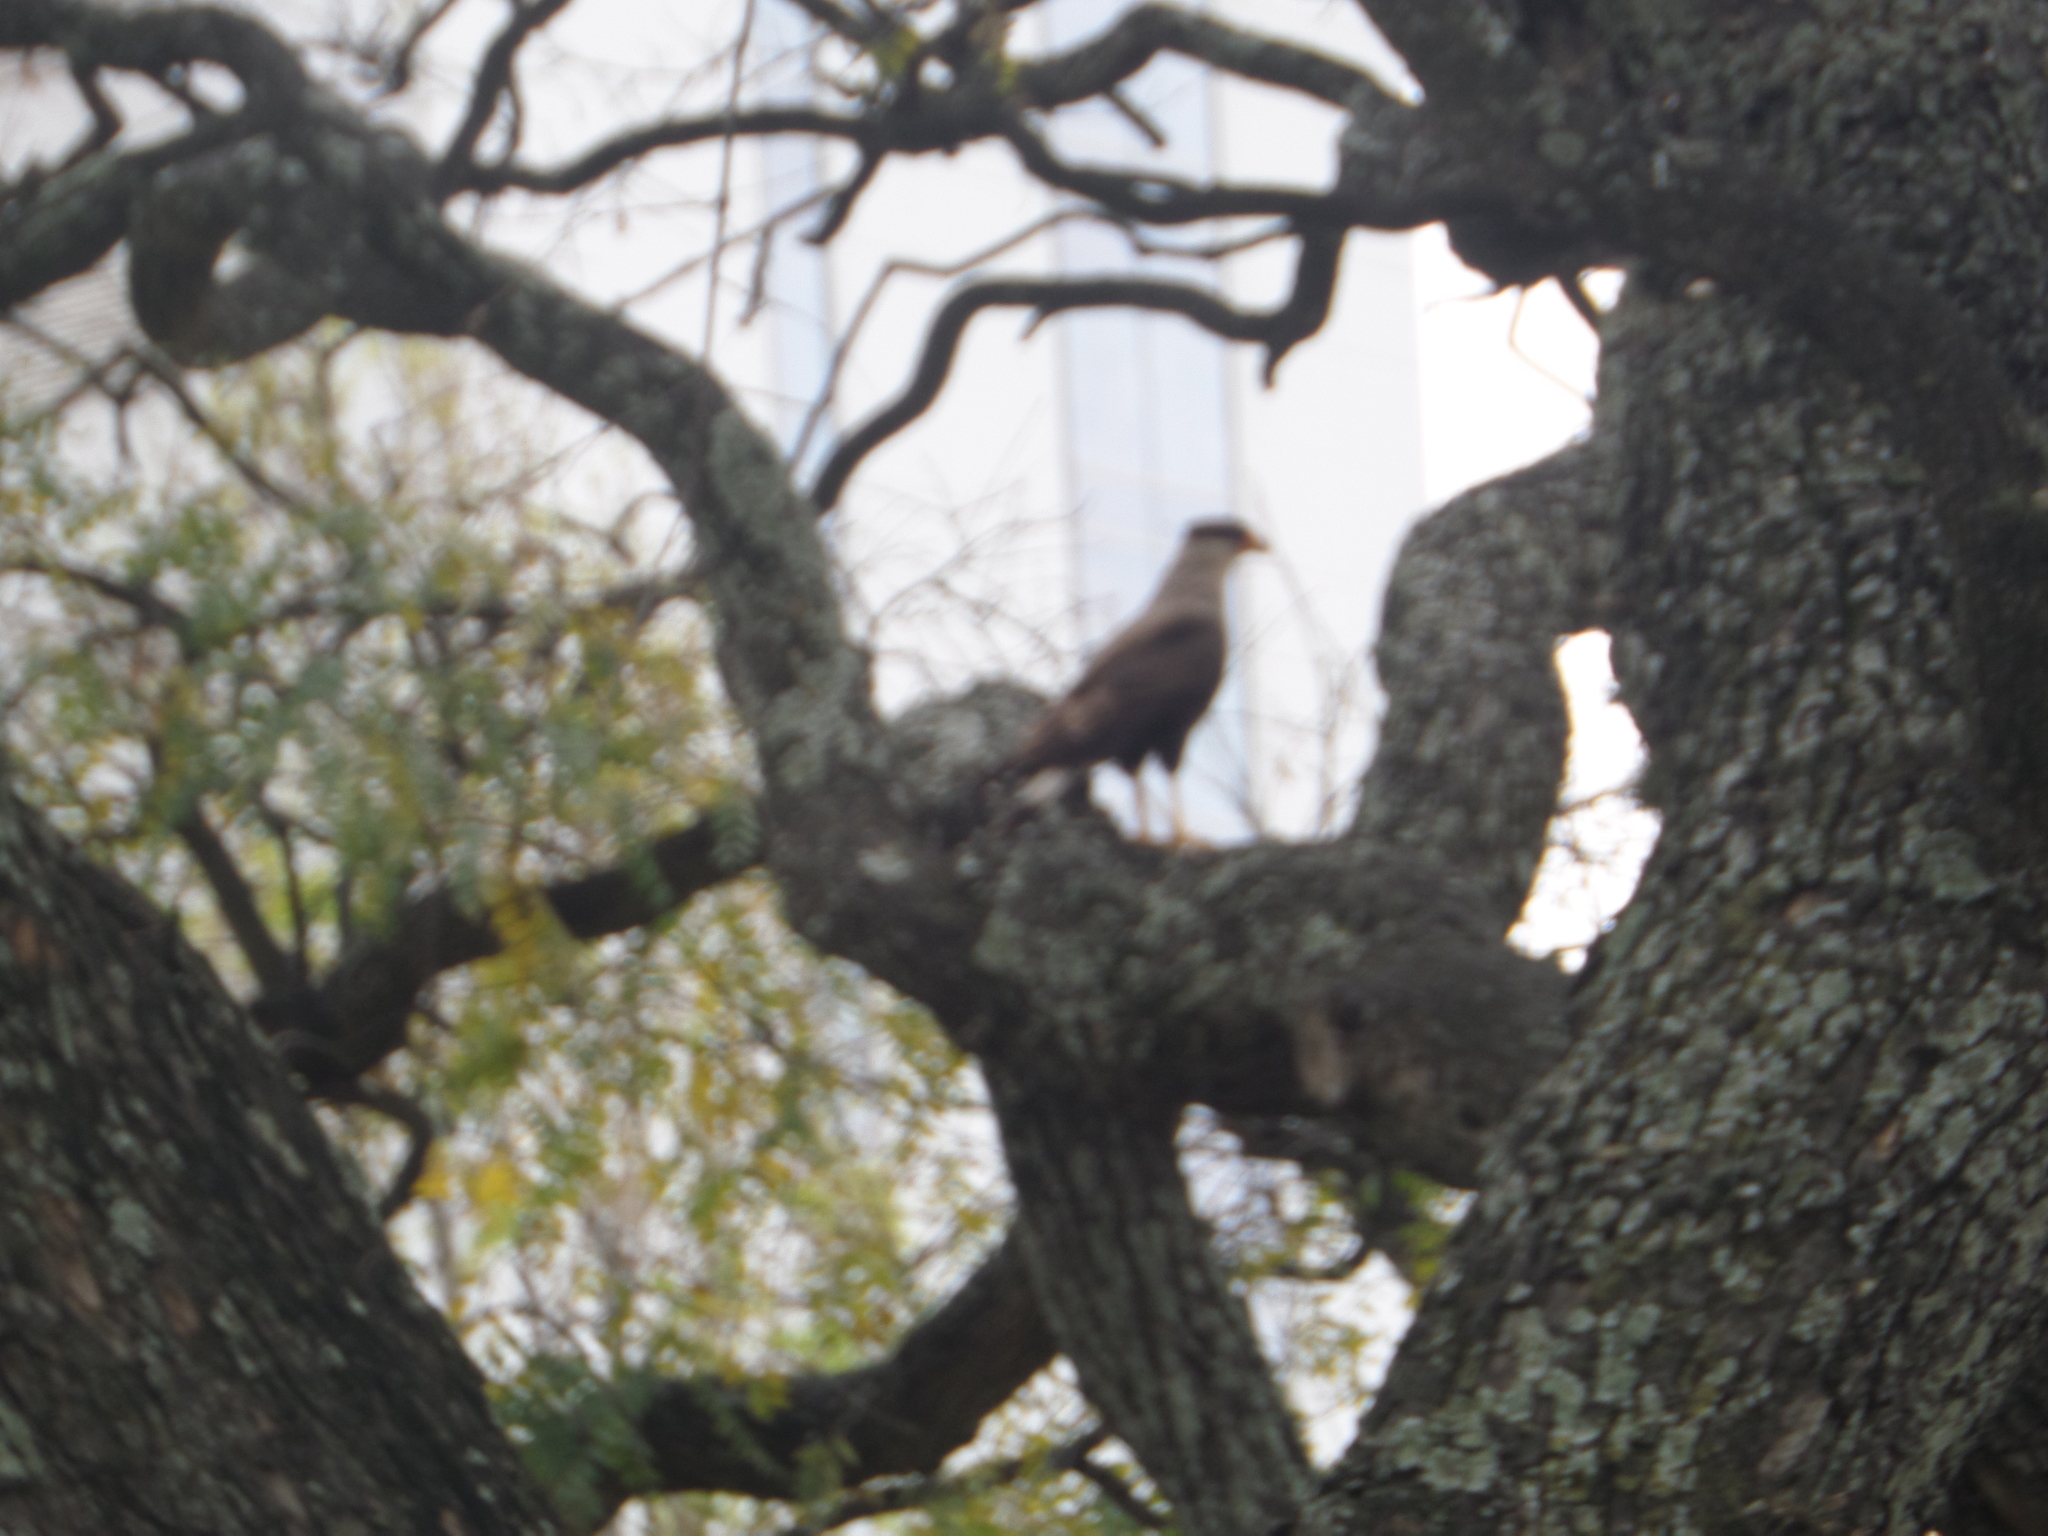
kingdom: Animalia
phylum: Chordata
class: Aves
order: Falconiformes
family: Falconidae
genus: Caracara
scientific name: Caracara plancus
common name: Southern caracara
